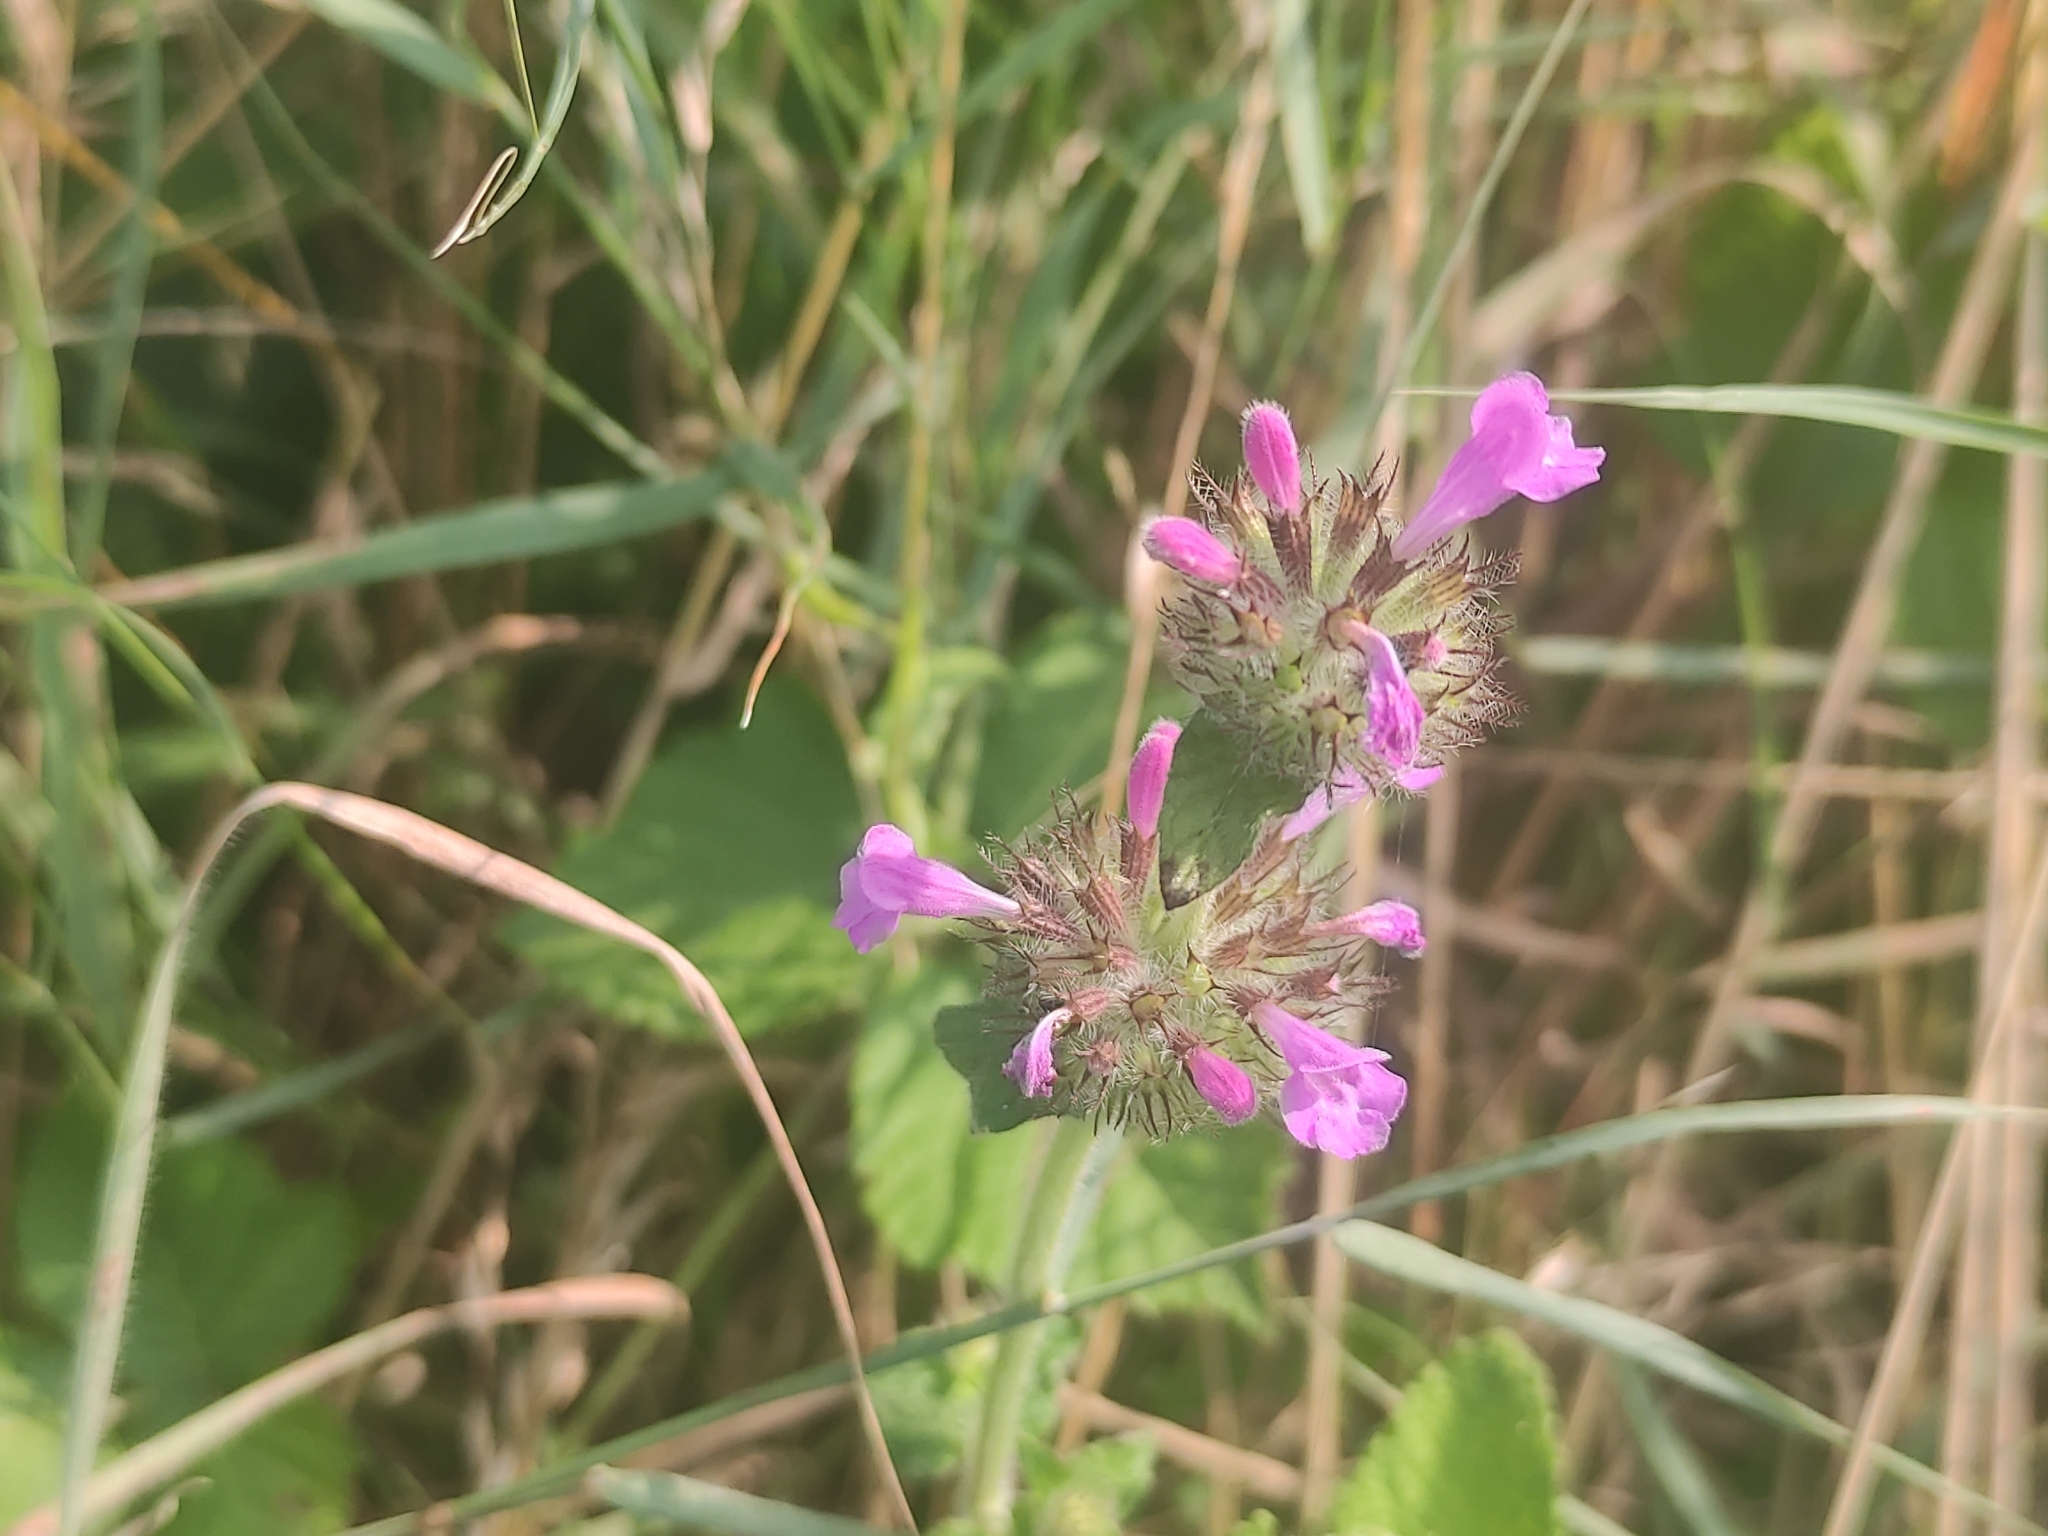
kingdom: Plantae
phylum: Tracheophyta
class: Magnoliopsida
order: Lamiales
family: Lamiaceae
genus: Clinopodium
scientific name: Clinopodium vulgare
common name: Wild basil
